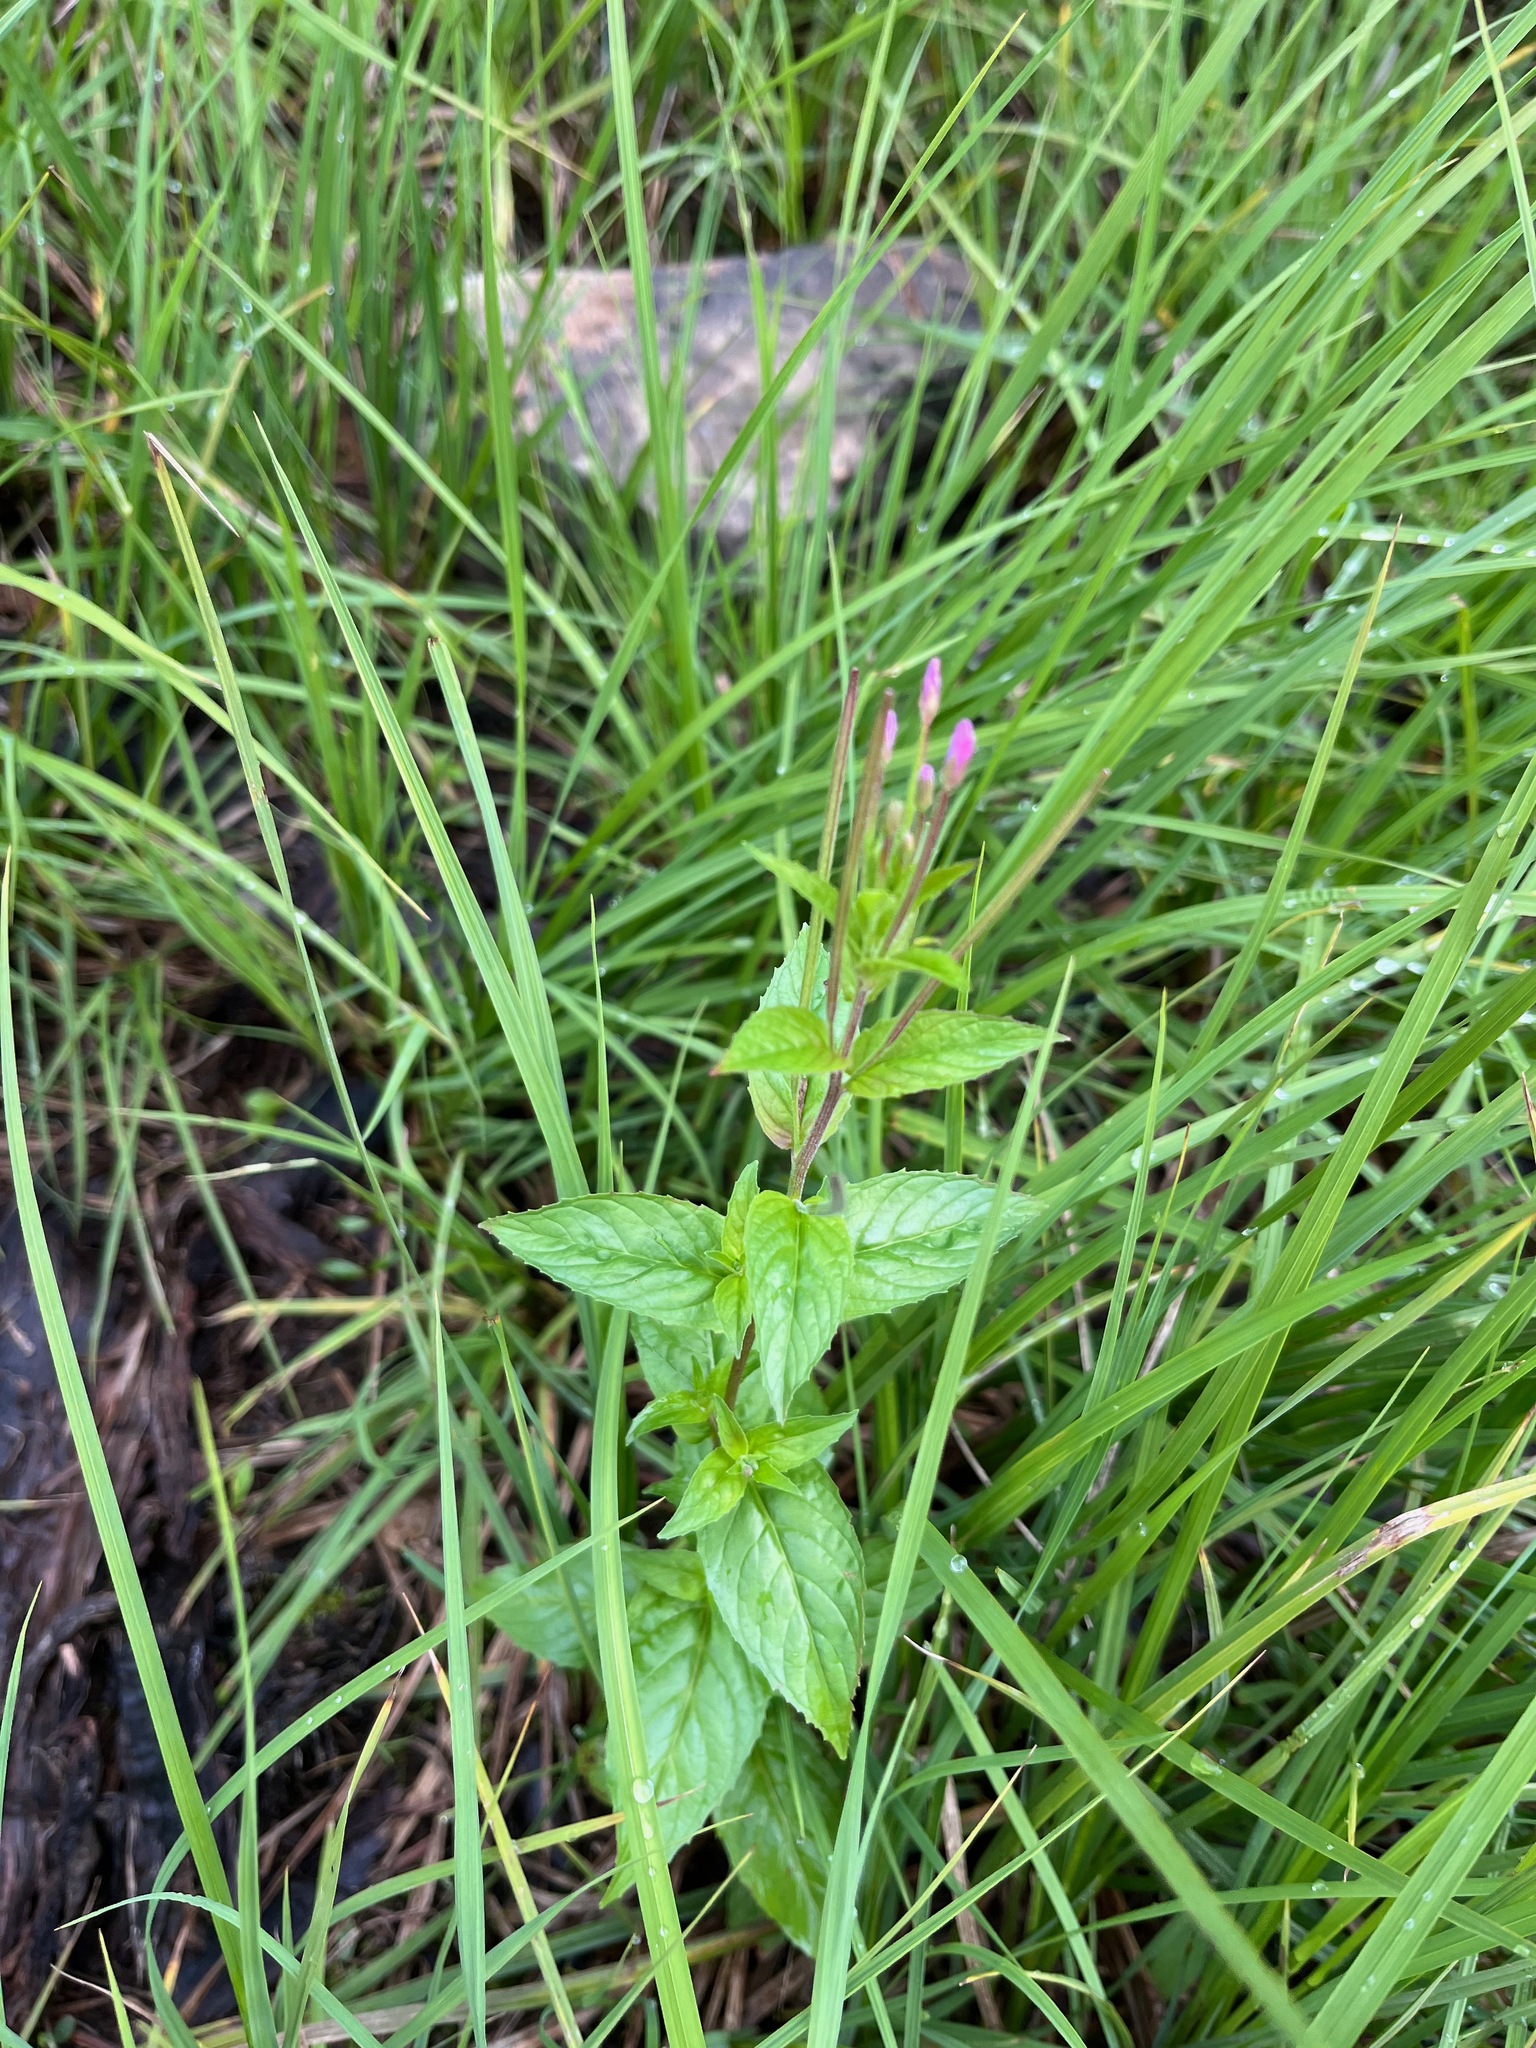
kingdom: Plantae
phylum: Tracheophyta
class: Magnoliopsida
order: Myrtales
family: Onagraceae
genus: Epilobium
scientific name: Epilobium ciliatum
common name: American willowherb
